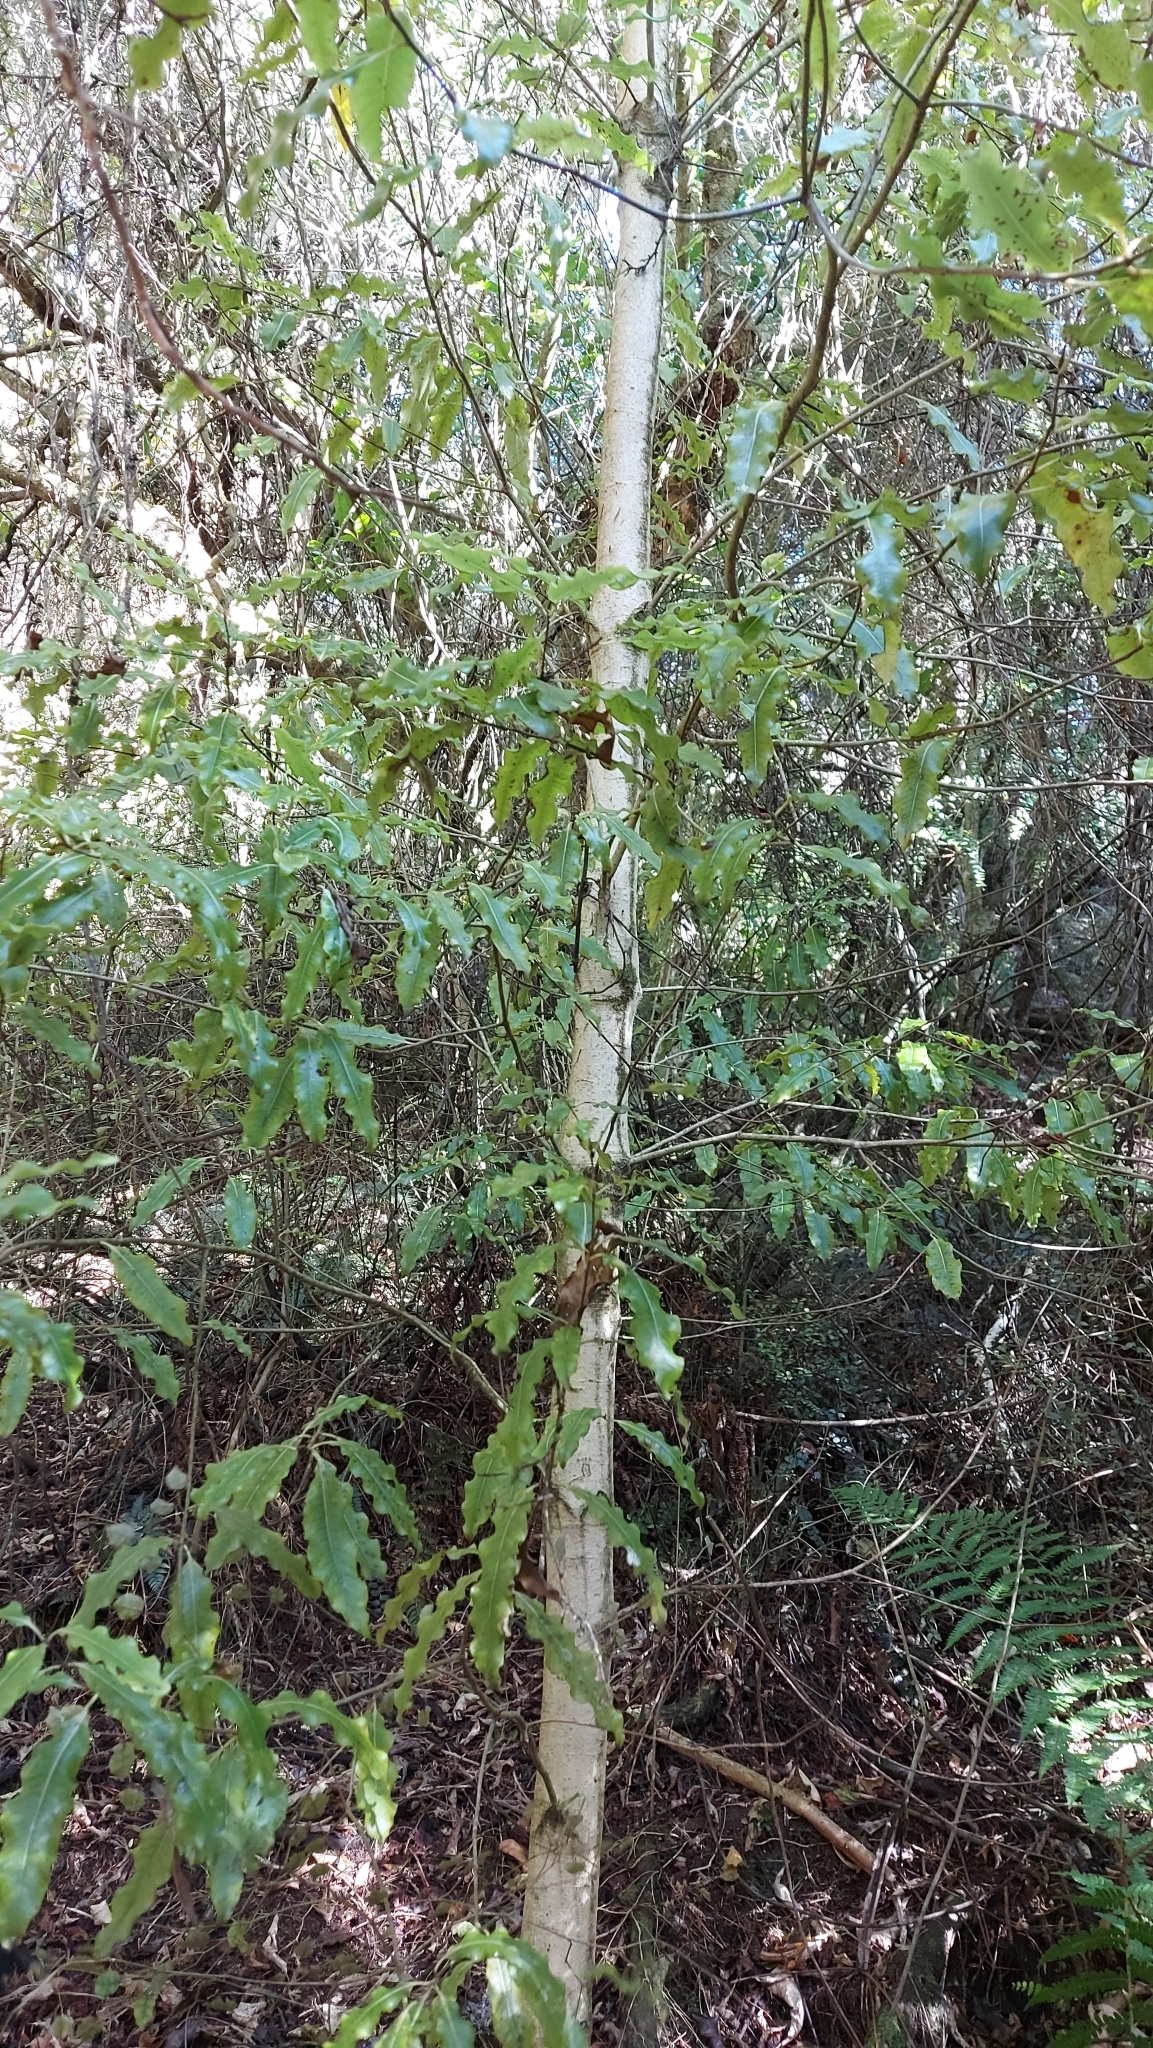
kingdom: Plantae
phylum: Tracheophyta
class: Magnoliopsida
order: Apiales
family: Pittosporaceae
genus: Pittosporum
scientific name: Pittosporum eugenioides
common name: Lemonwood
